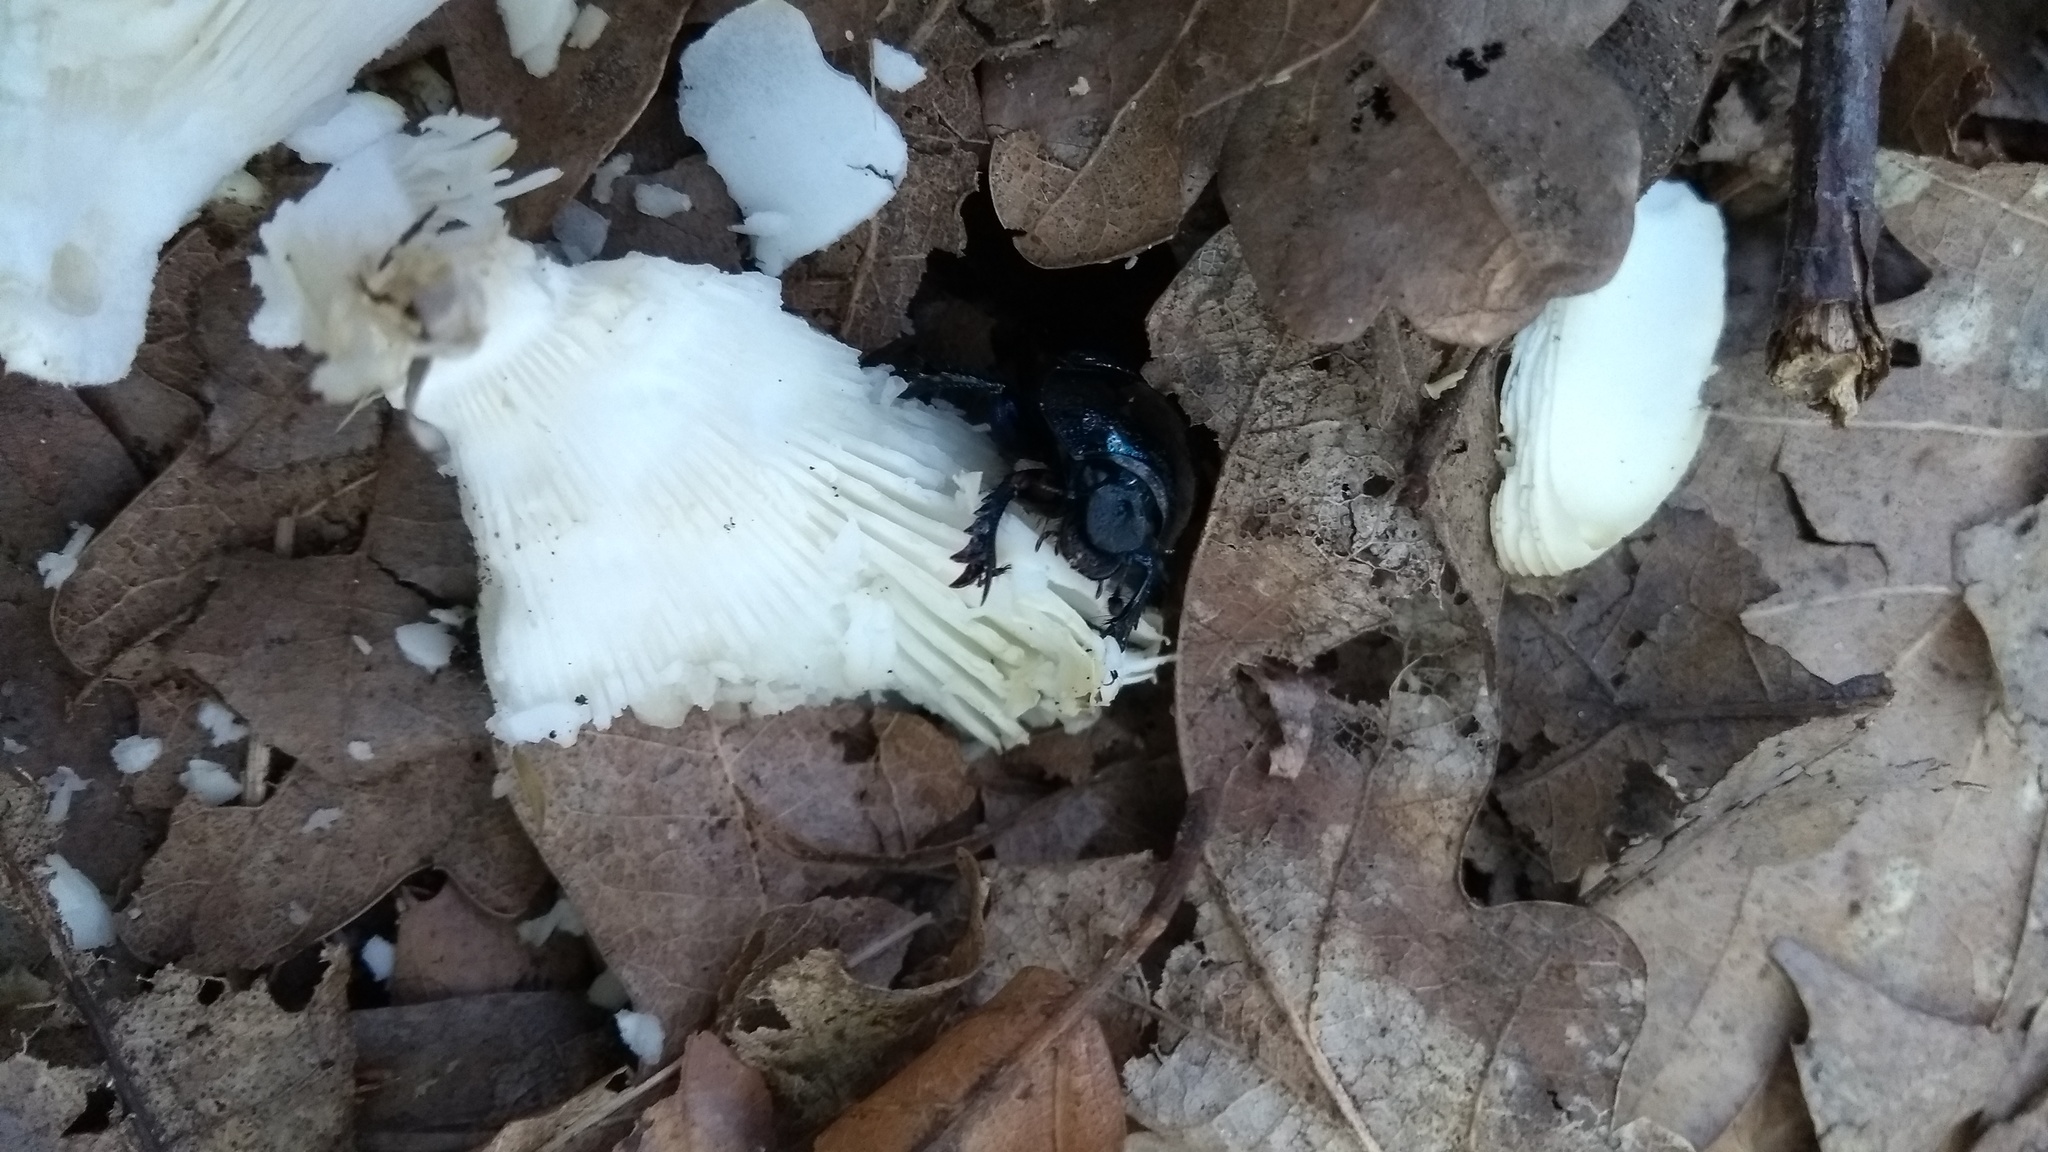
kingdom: Animalia
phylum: Arthropoda
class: Insecta
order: Coleoptera
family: Geotrupidae
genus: Anoplotrupes
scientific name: Anoplotrupes stercorosus
